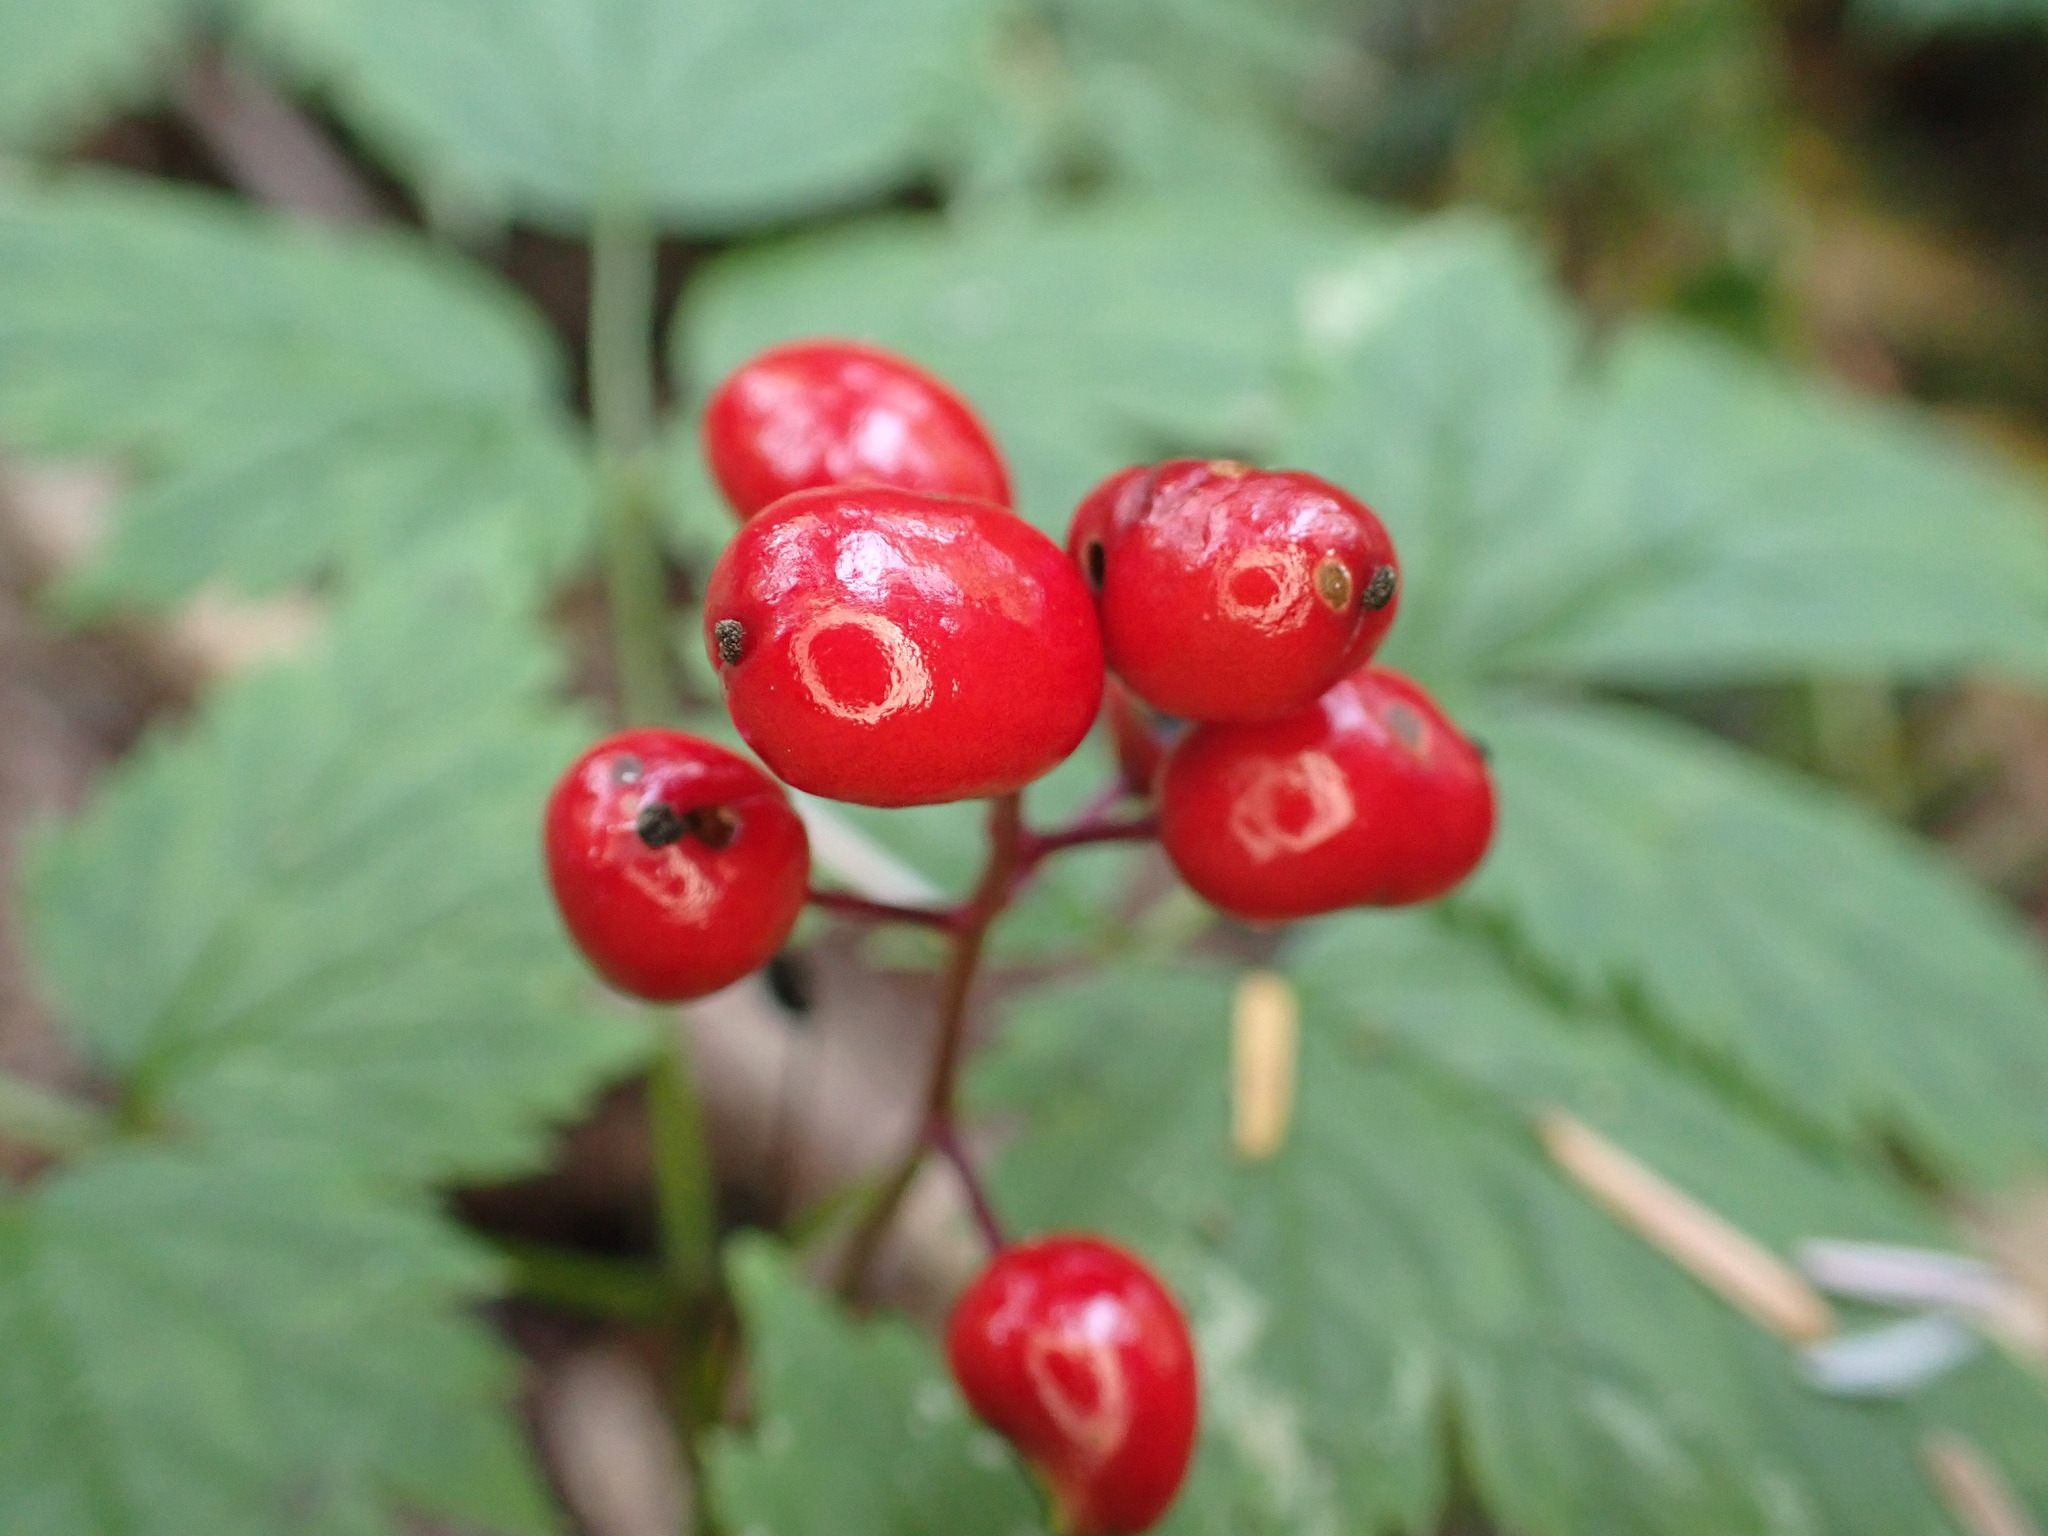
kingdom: Plantae
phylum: Tracheophyta
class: Magnoliopsida
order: Ranunculales
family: Ranunculaceae
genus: Actaea
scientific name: Actaea rubra
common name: Red baneberry
